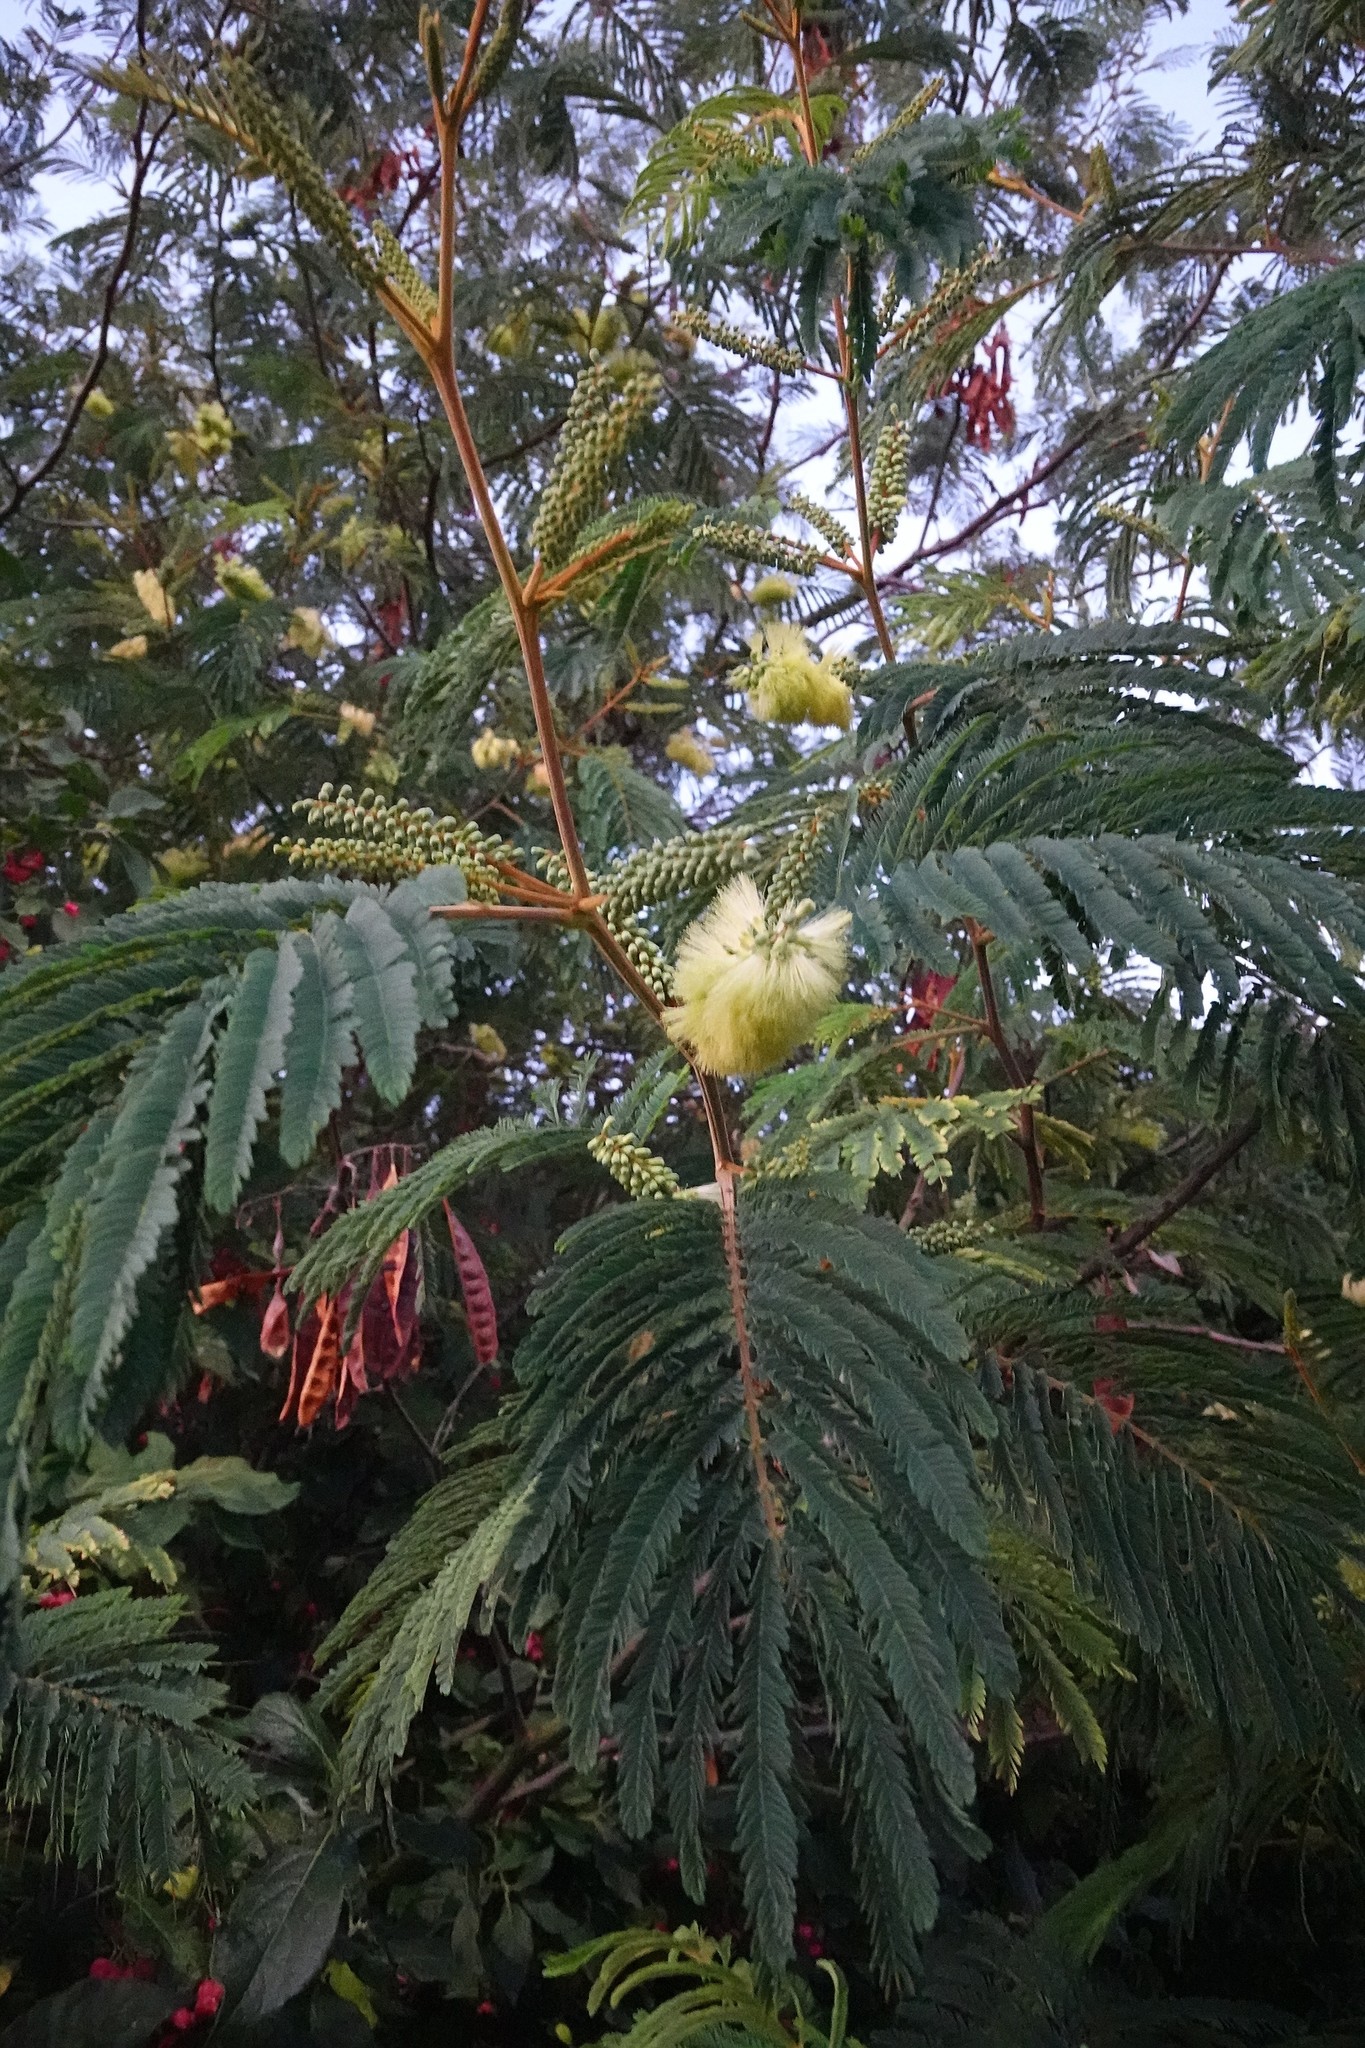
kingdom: Plantae
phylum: Tracheophyta
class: Magnoliopsida
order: Fabales
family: Fabaceae
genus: Paraserianthes
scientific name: Paraserianthes lophantha
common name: Plume albizia
